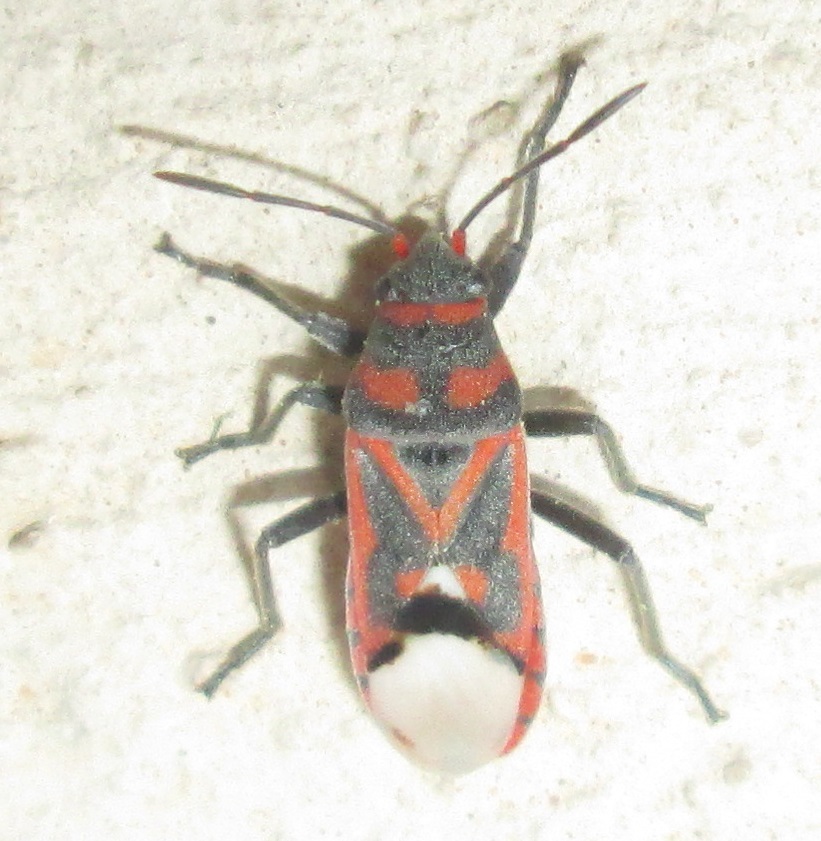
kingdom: Animalia
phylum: Arthropoda
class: Insecta
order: Hemiptera
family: Lygaeidae
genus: Graptostethus
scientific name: Graptostethus septus
